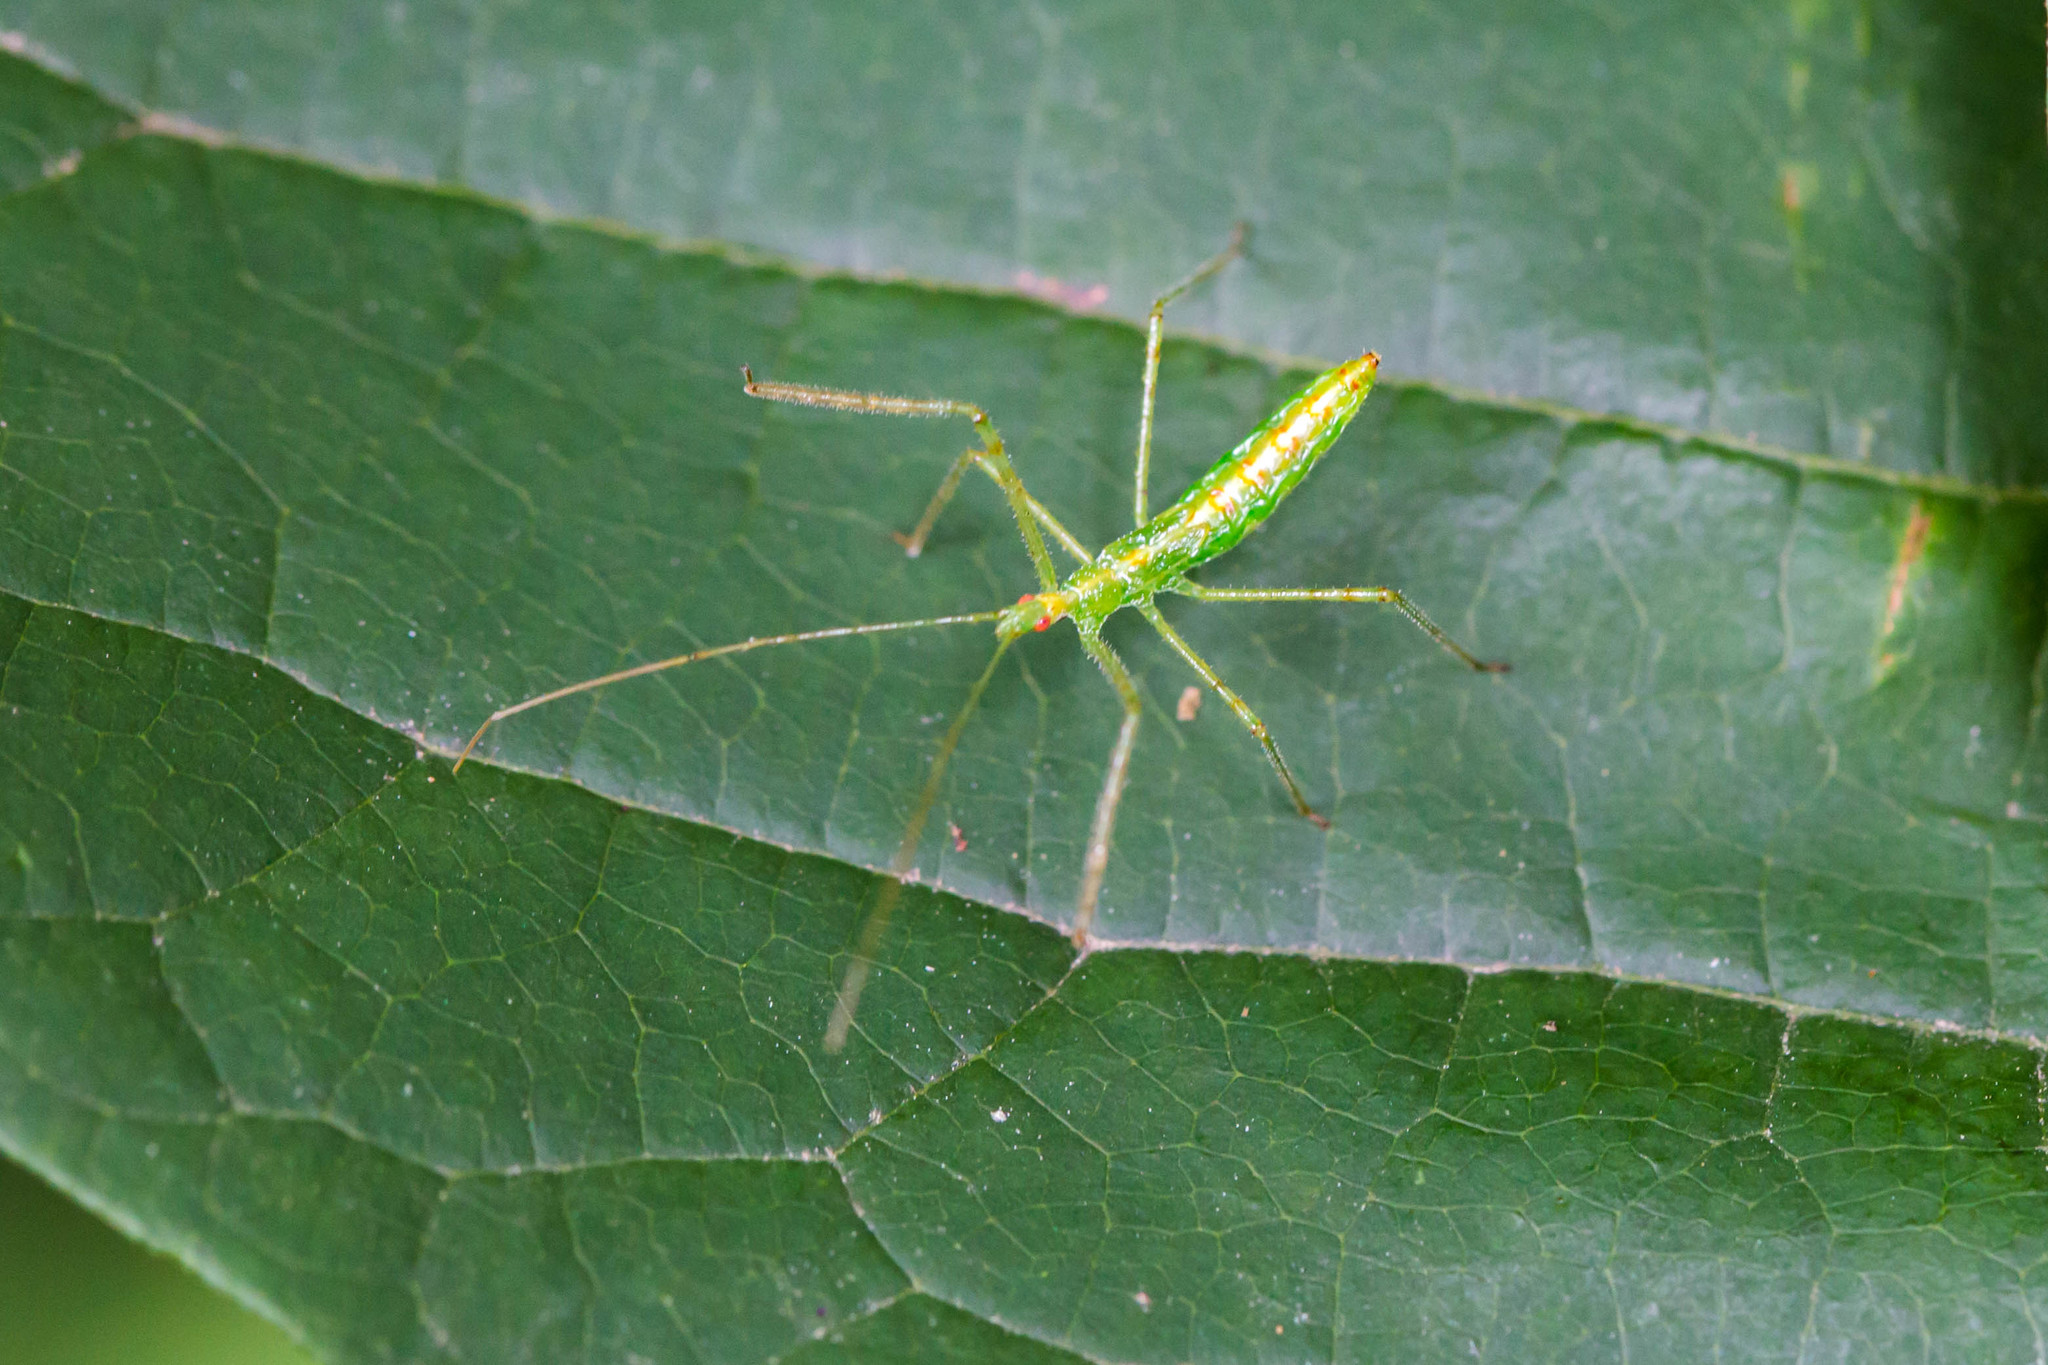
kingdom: Animalia
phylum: Arthropoda
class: Insecta
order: Hemiptera
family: Reduviidae
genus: Zelus
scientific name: Zelus luridus
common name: Pale green assassin bug
